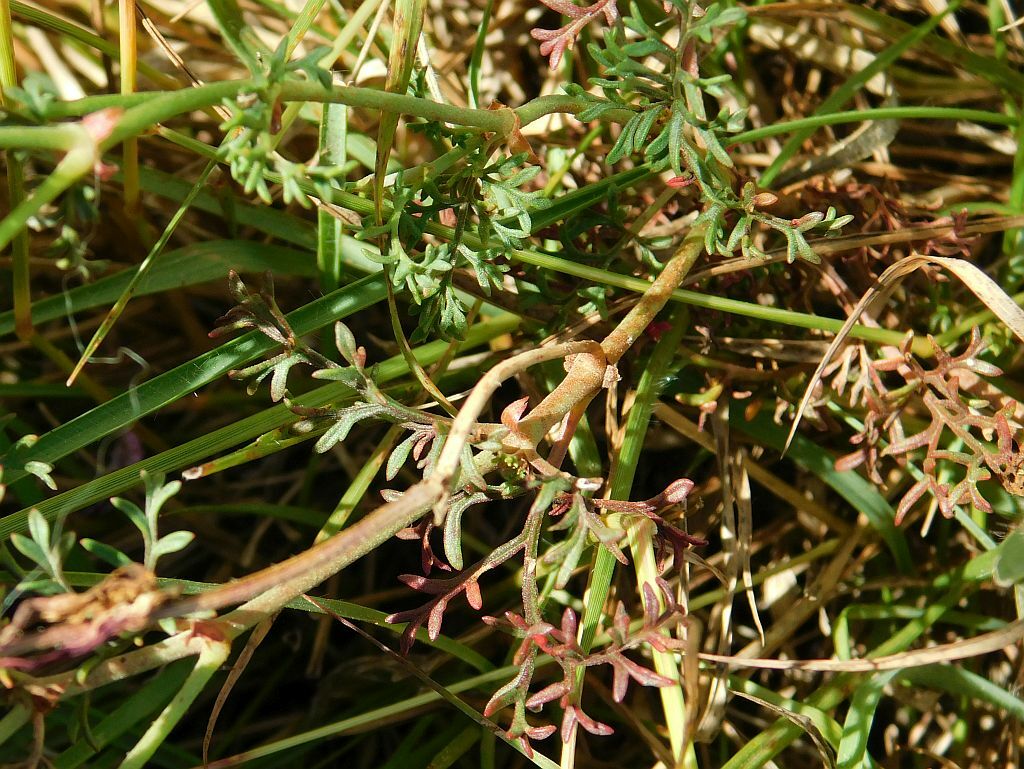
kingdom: Plantae
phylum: Tracheophyta
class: Magnoliopsida
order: Geraniales
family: Geraniaceae
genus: Pelargonium
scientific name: Pelargonium caucalifolium
